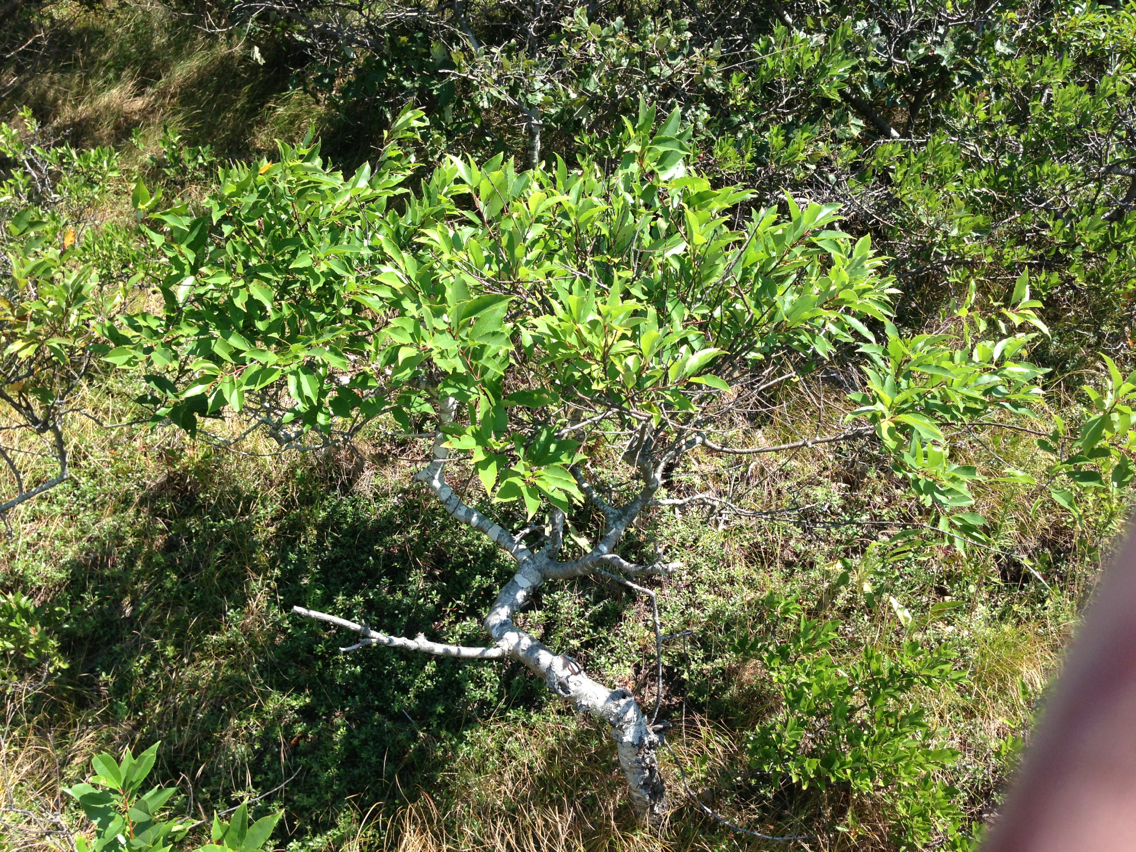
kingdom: Plantae
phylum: Tracheophyta
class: Magnoliopsida
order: Rosales
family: Rosaceae
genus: Prunus
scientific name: Prunus maritima
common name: Beach plum
